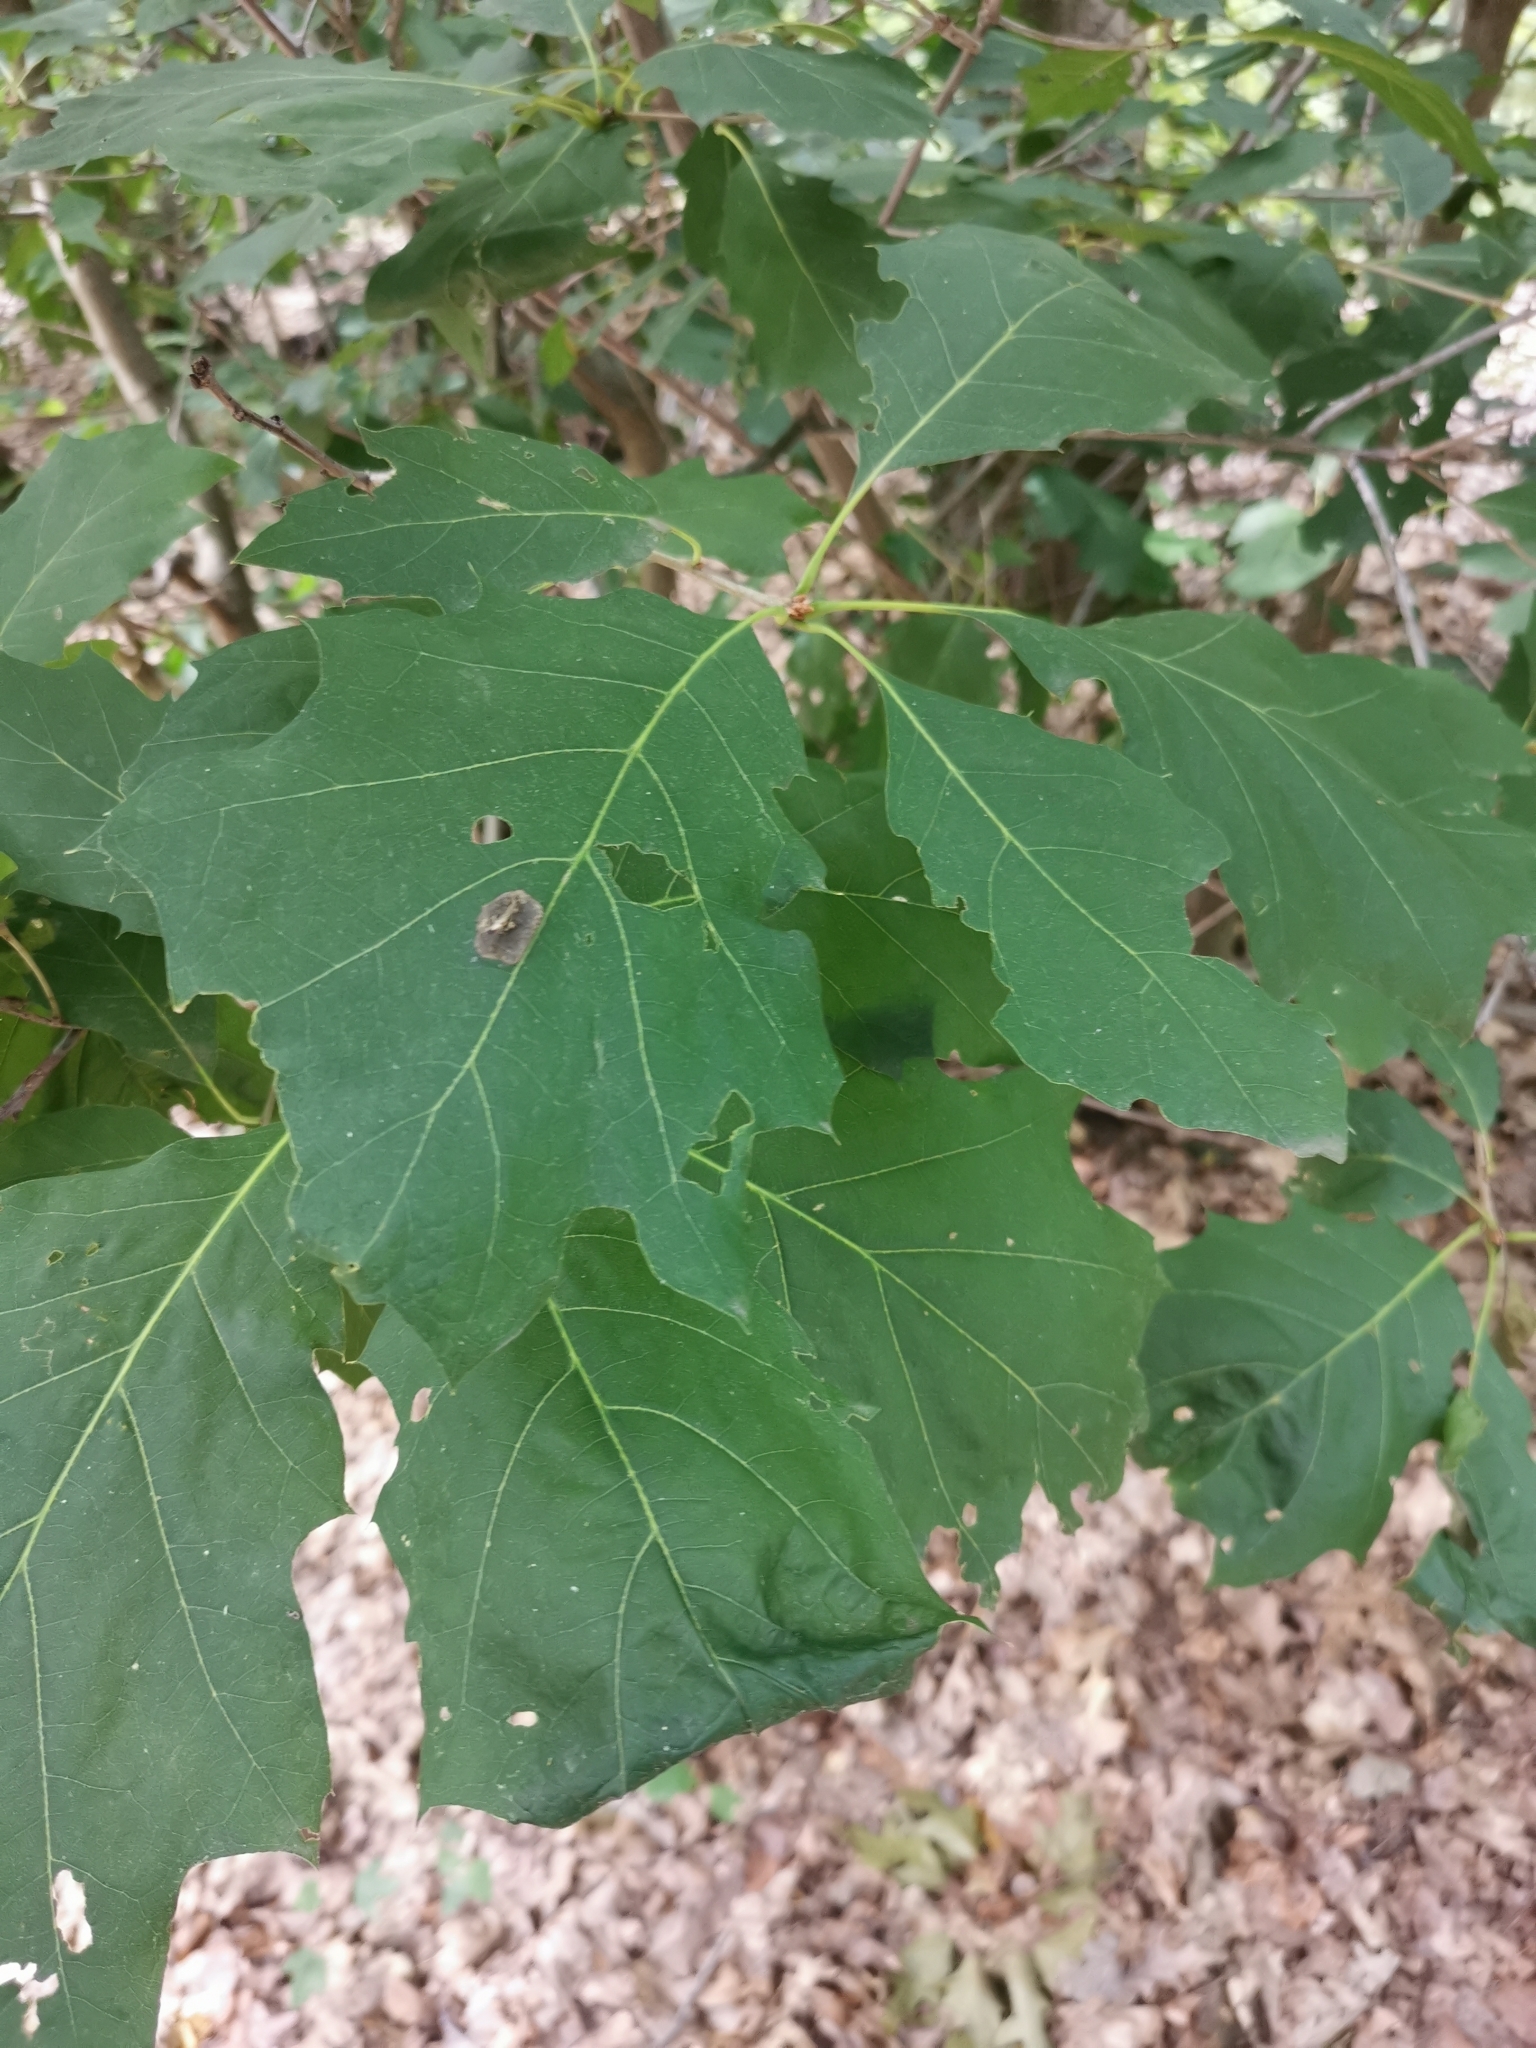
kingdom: Plantae
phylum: Tracheophyta
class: Magnoliopsida
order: Fagales
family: Fagaceae
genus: Quercus
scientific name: Quercus rubra
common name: Red oak
